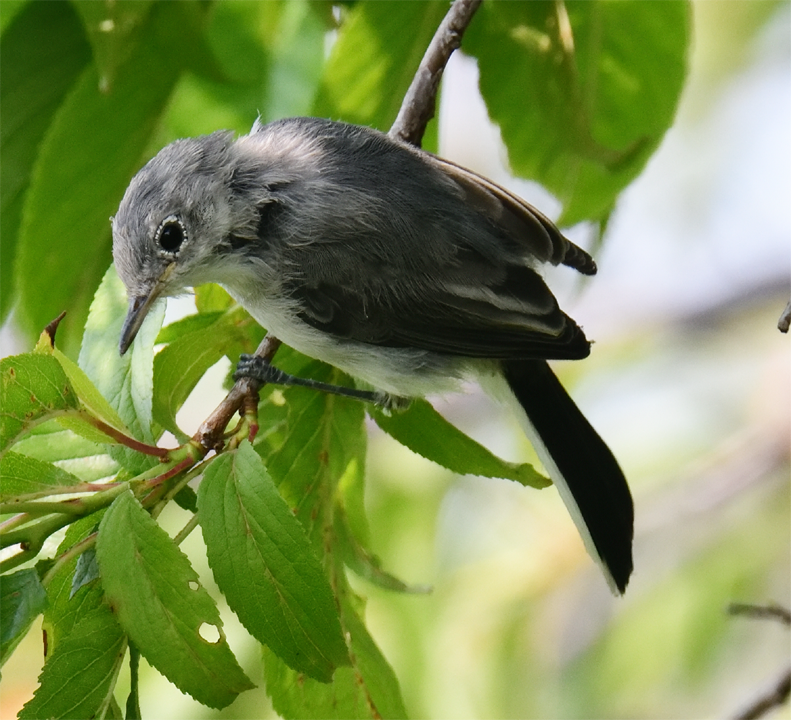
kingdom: Animalia
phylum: Chordata
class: Aves
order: Passeriformes
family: Polioptilidae
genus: Polioptila
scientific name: Polioptila caerulea
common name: Blue-gray gnatcatcher
